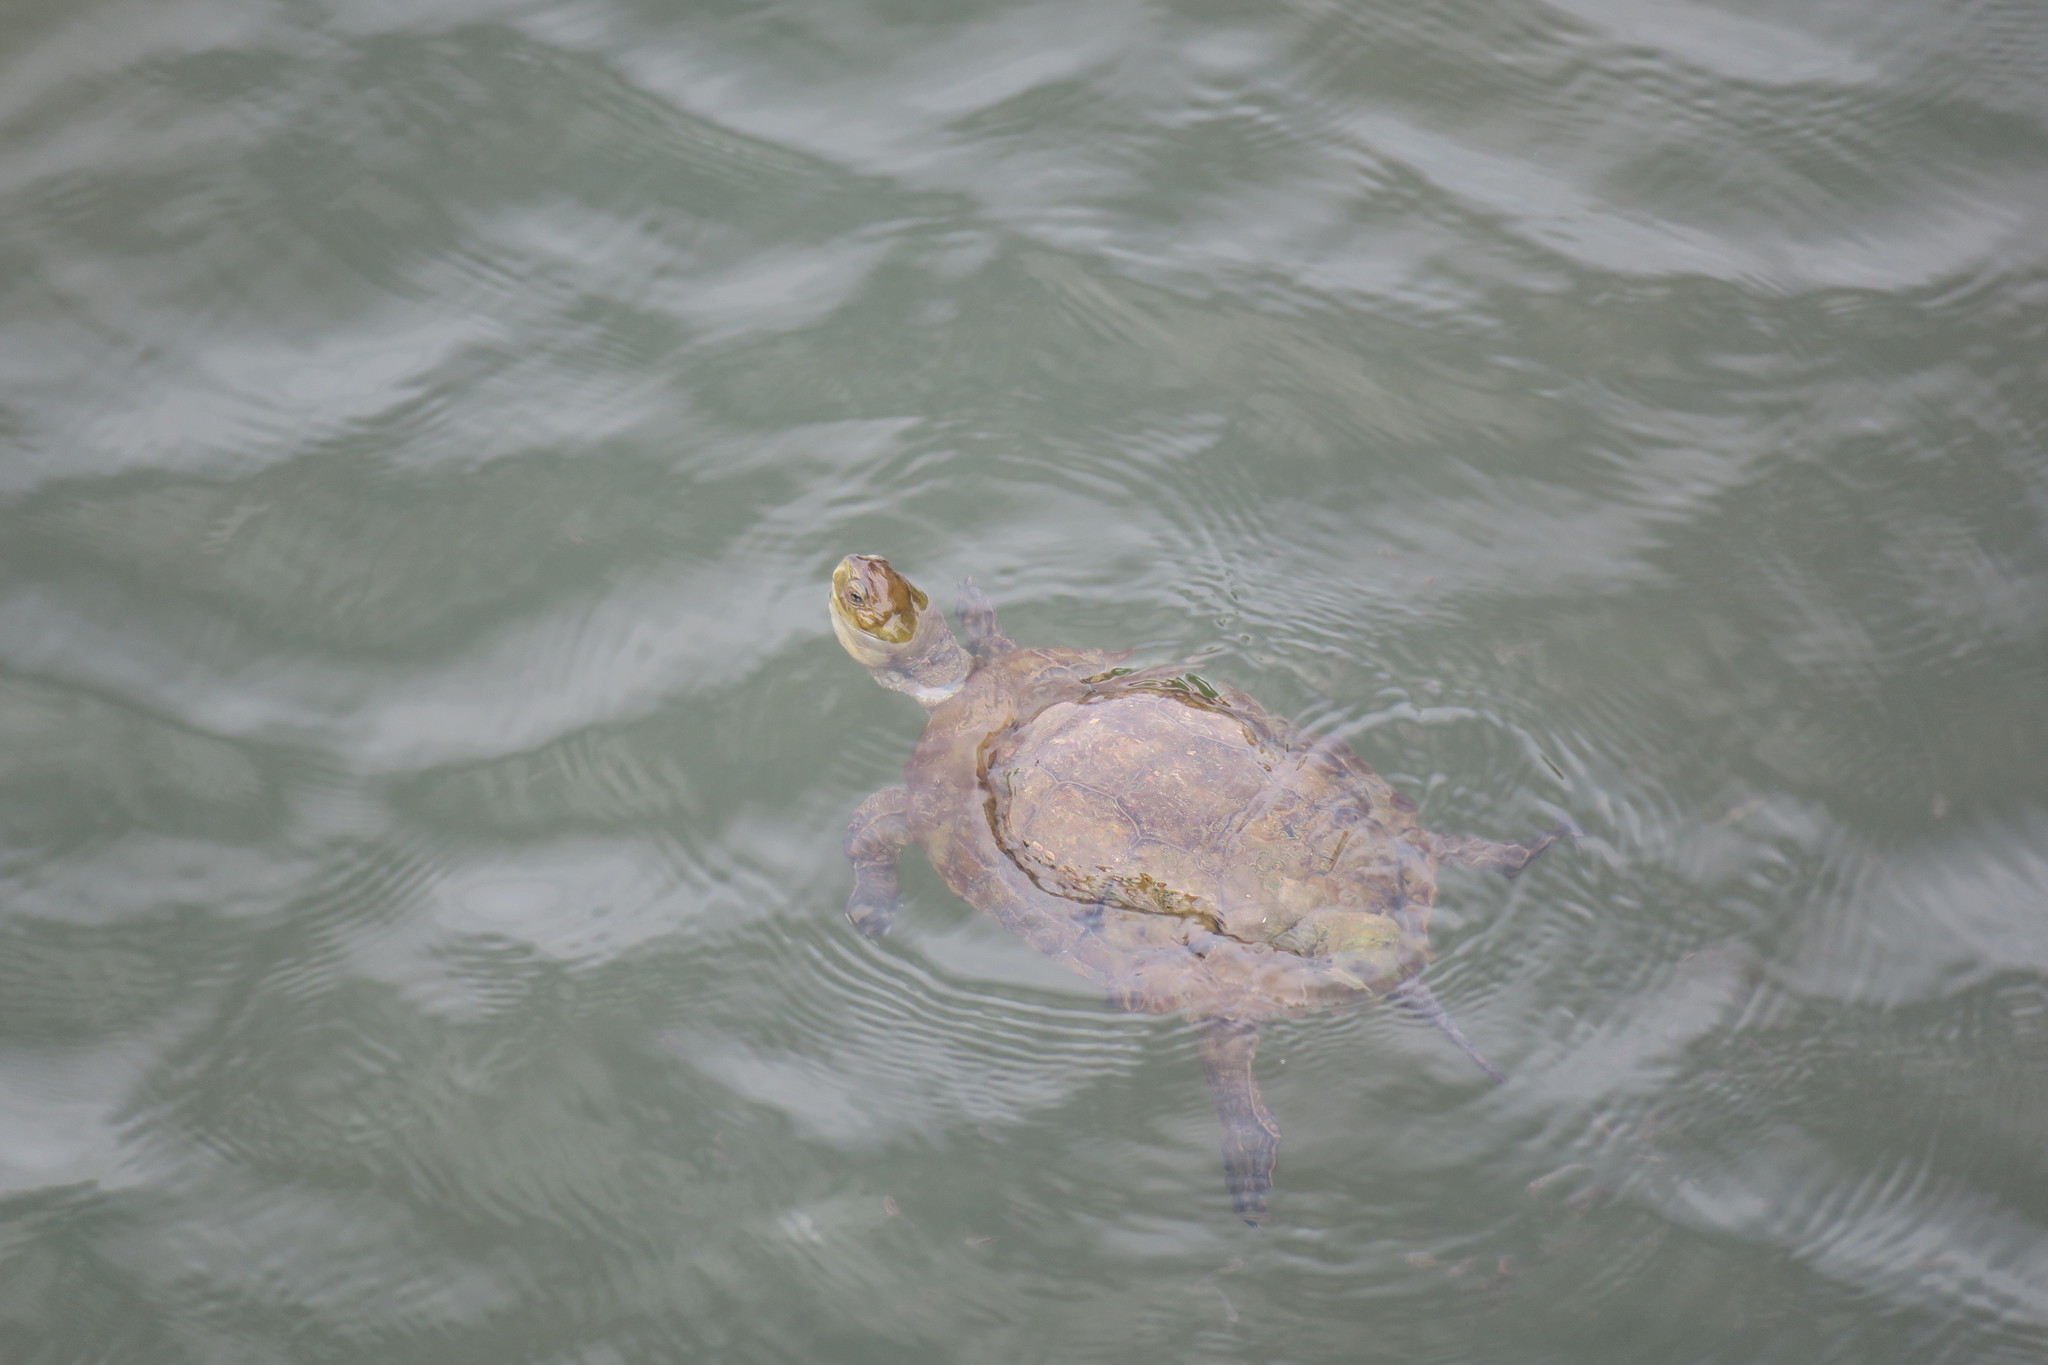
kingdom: Animalia
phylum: Chordata
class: Testudines
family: Geoemydidae
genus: Mauremys
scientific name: Mauremys leprosa
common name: Mediterranean pond turtle
